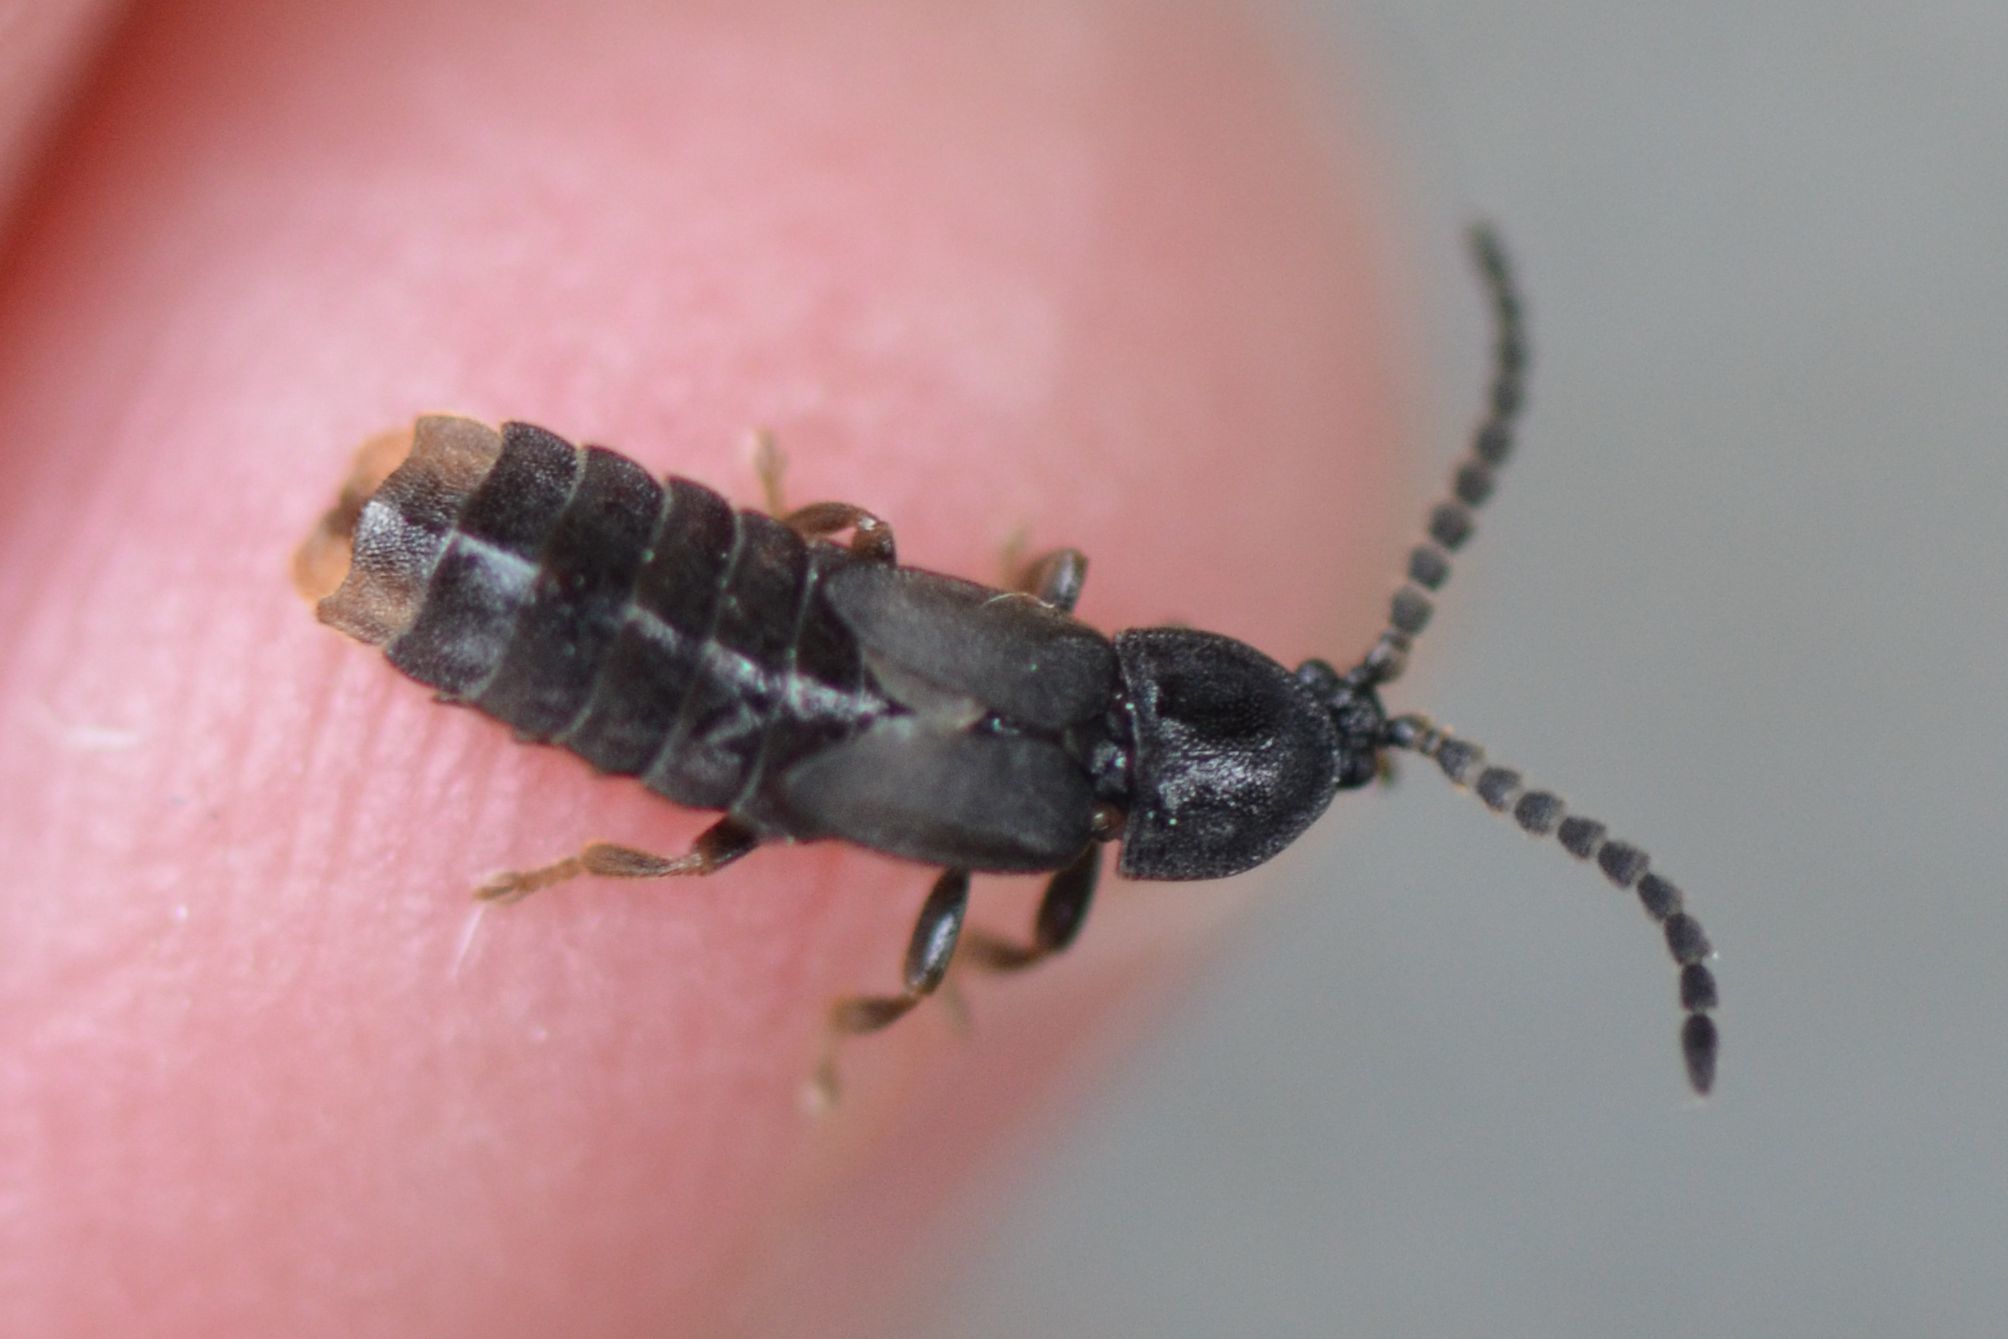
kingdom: Animalia
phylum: Arthropoda
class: Insecta
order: Coleoptera
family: Lampyridae
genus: Phosphaenus
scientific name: Phosphaenus hemipterus
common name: Short-winged firefly
